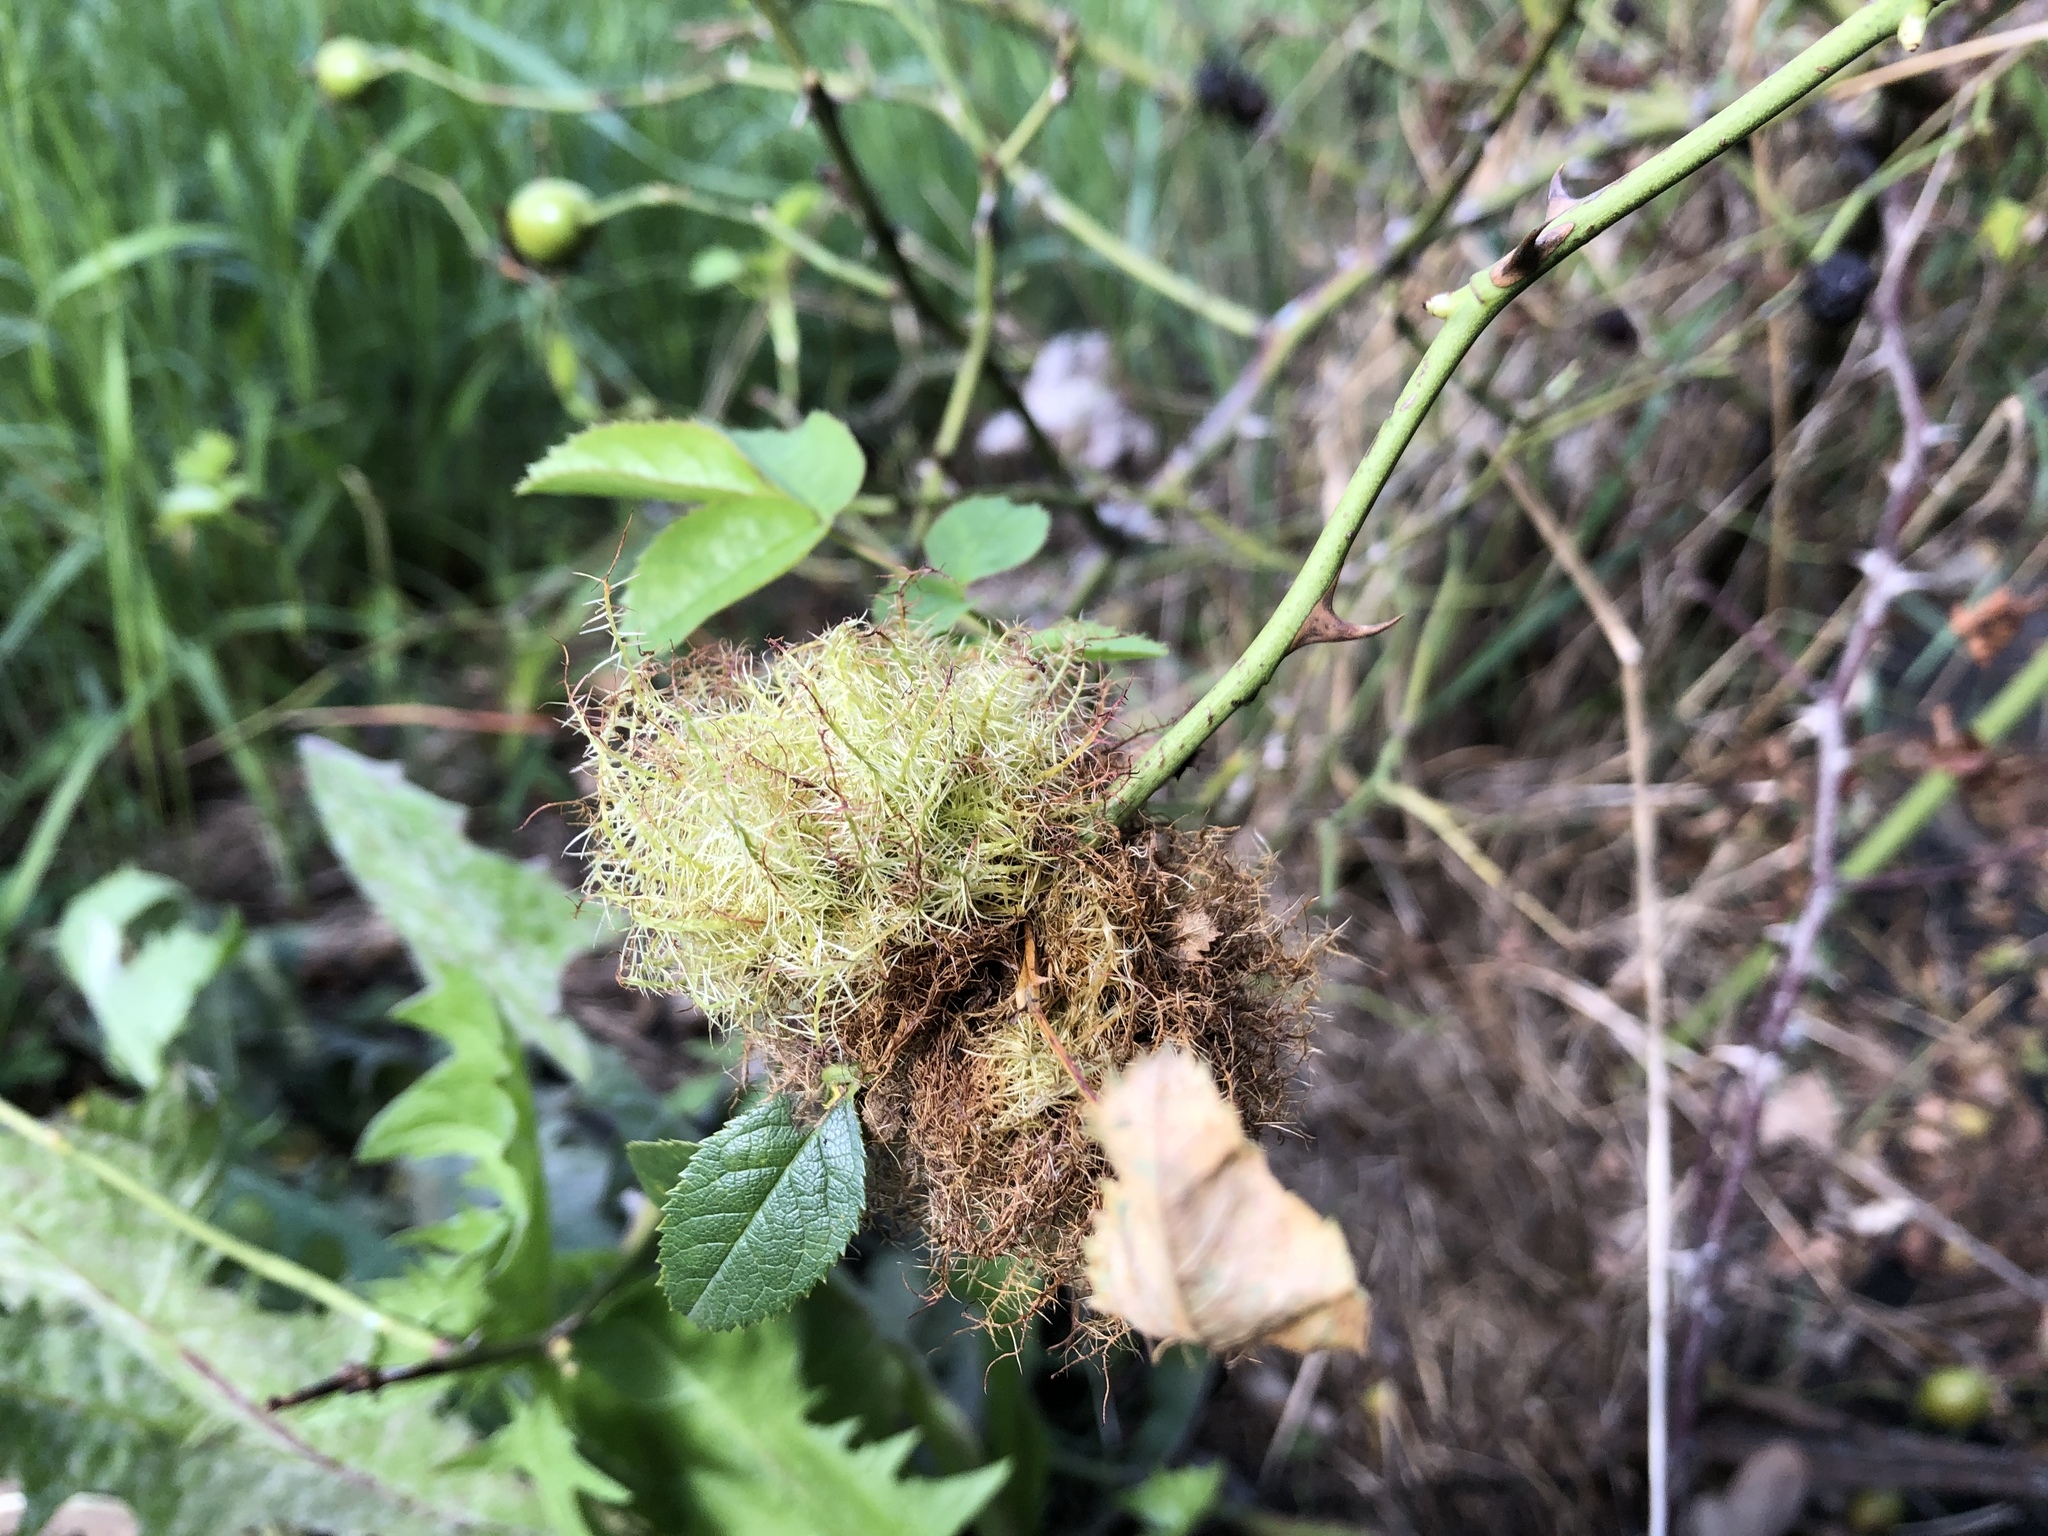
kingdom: Animalia
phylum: Arthropoda
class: Insecta
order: Hymenoptera
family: Cynipidae
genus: Diplolepis
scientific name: Diplolepis rosae
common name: Bedeguar gall
